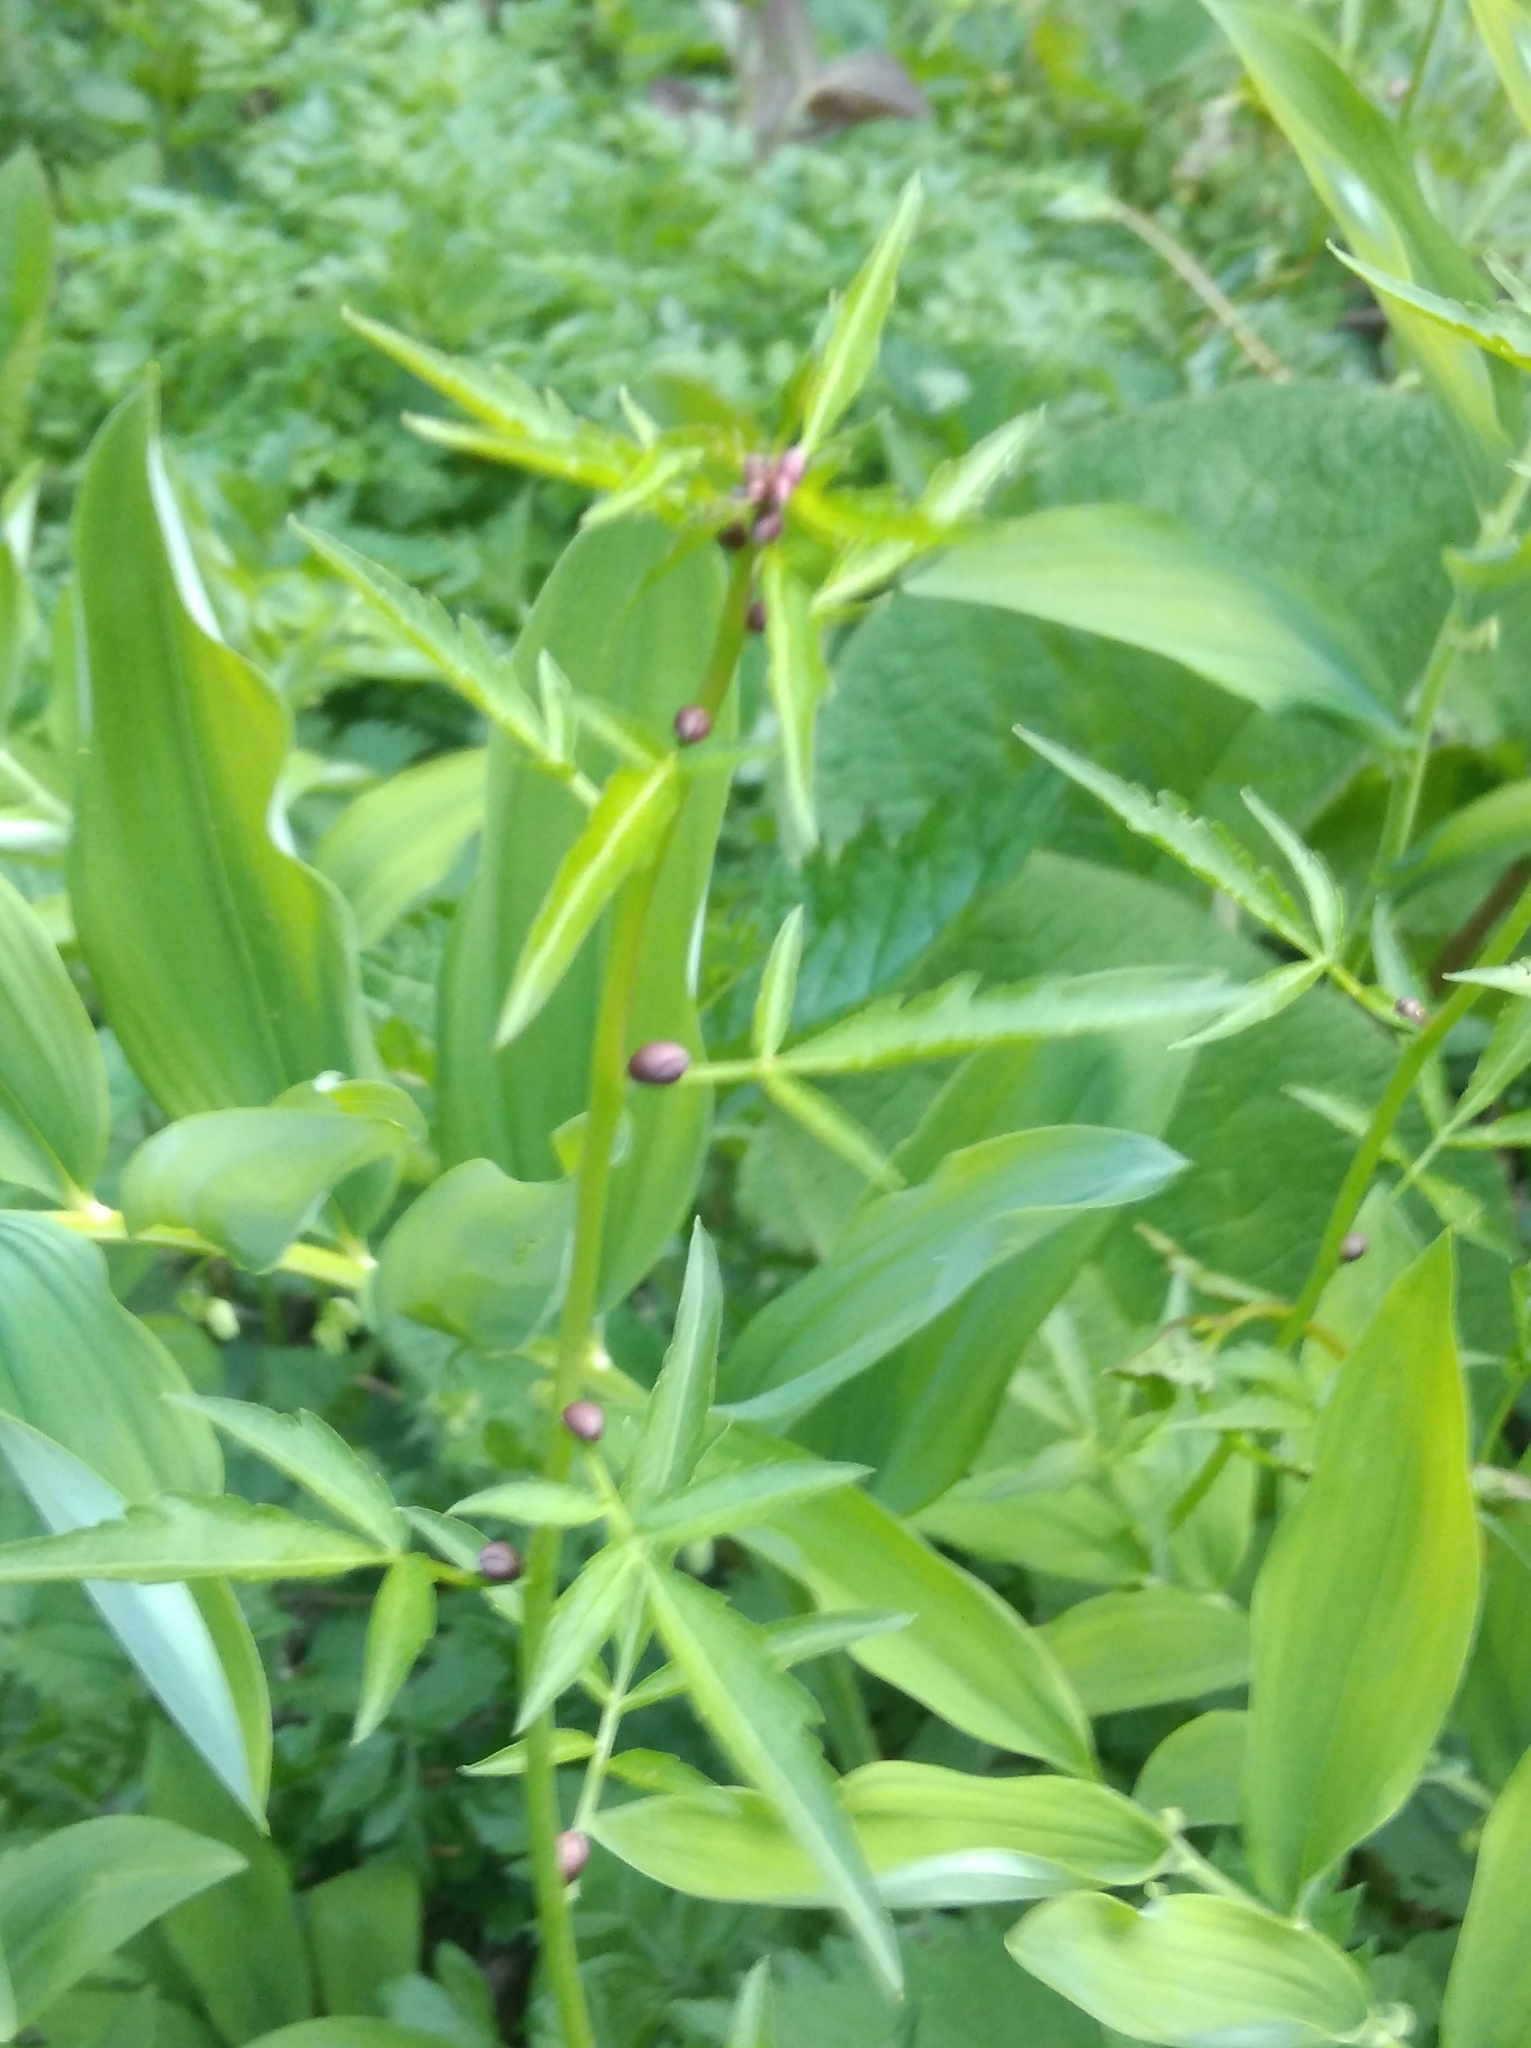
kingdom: Plantae
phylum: Tracheophyta
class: Magnoliopsida
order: Brassicales
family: Brassicaceae
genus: Cardamine
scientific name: Cardamine bulbifera
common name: Coralroot bittercress
